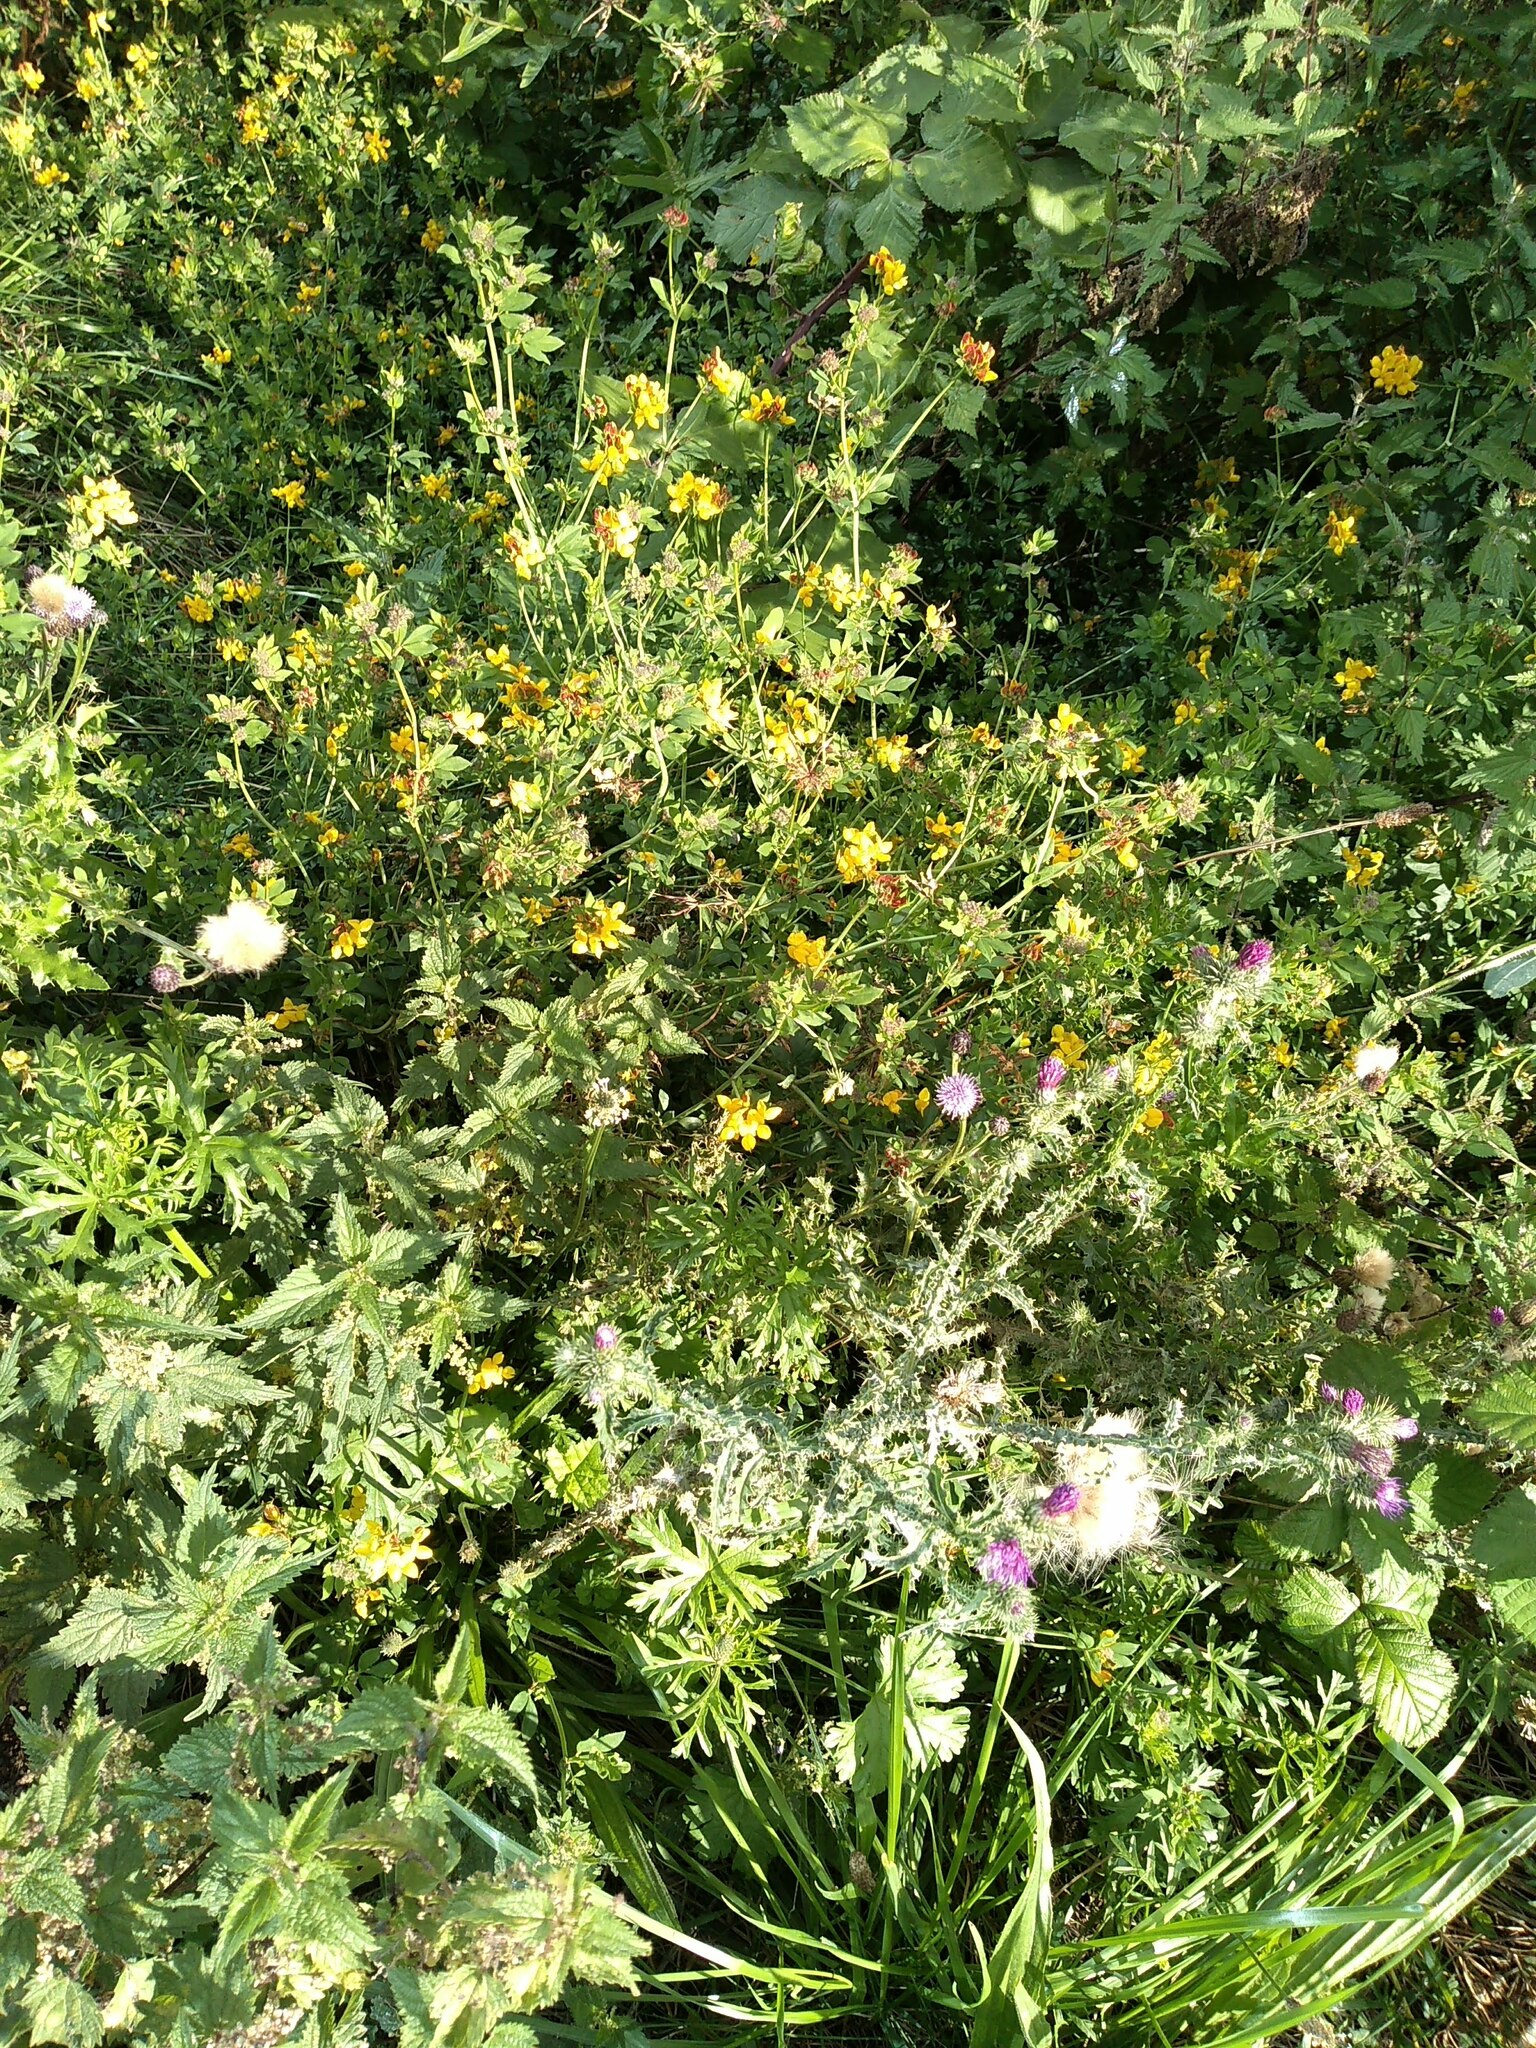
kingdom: Plantae
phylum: Tracheophyta
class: Magnoliopsida
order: Fabales
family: Fabaceae
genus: Lotus
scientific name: Lotus pedunculatus
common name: Greater birdsfoot-trefoil
